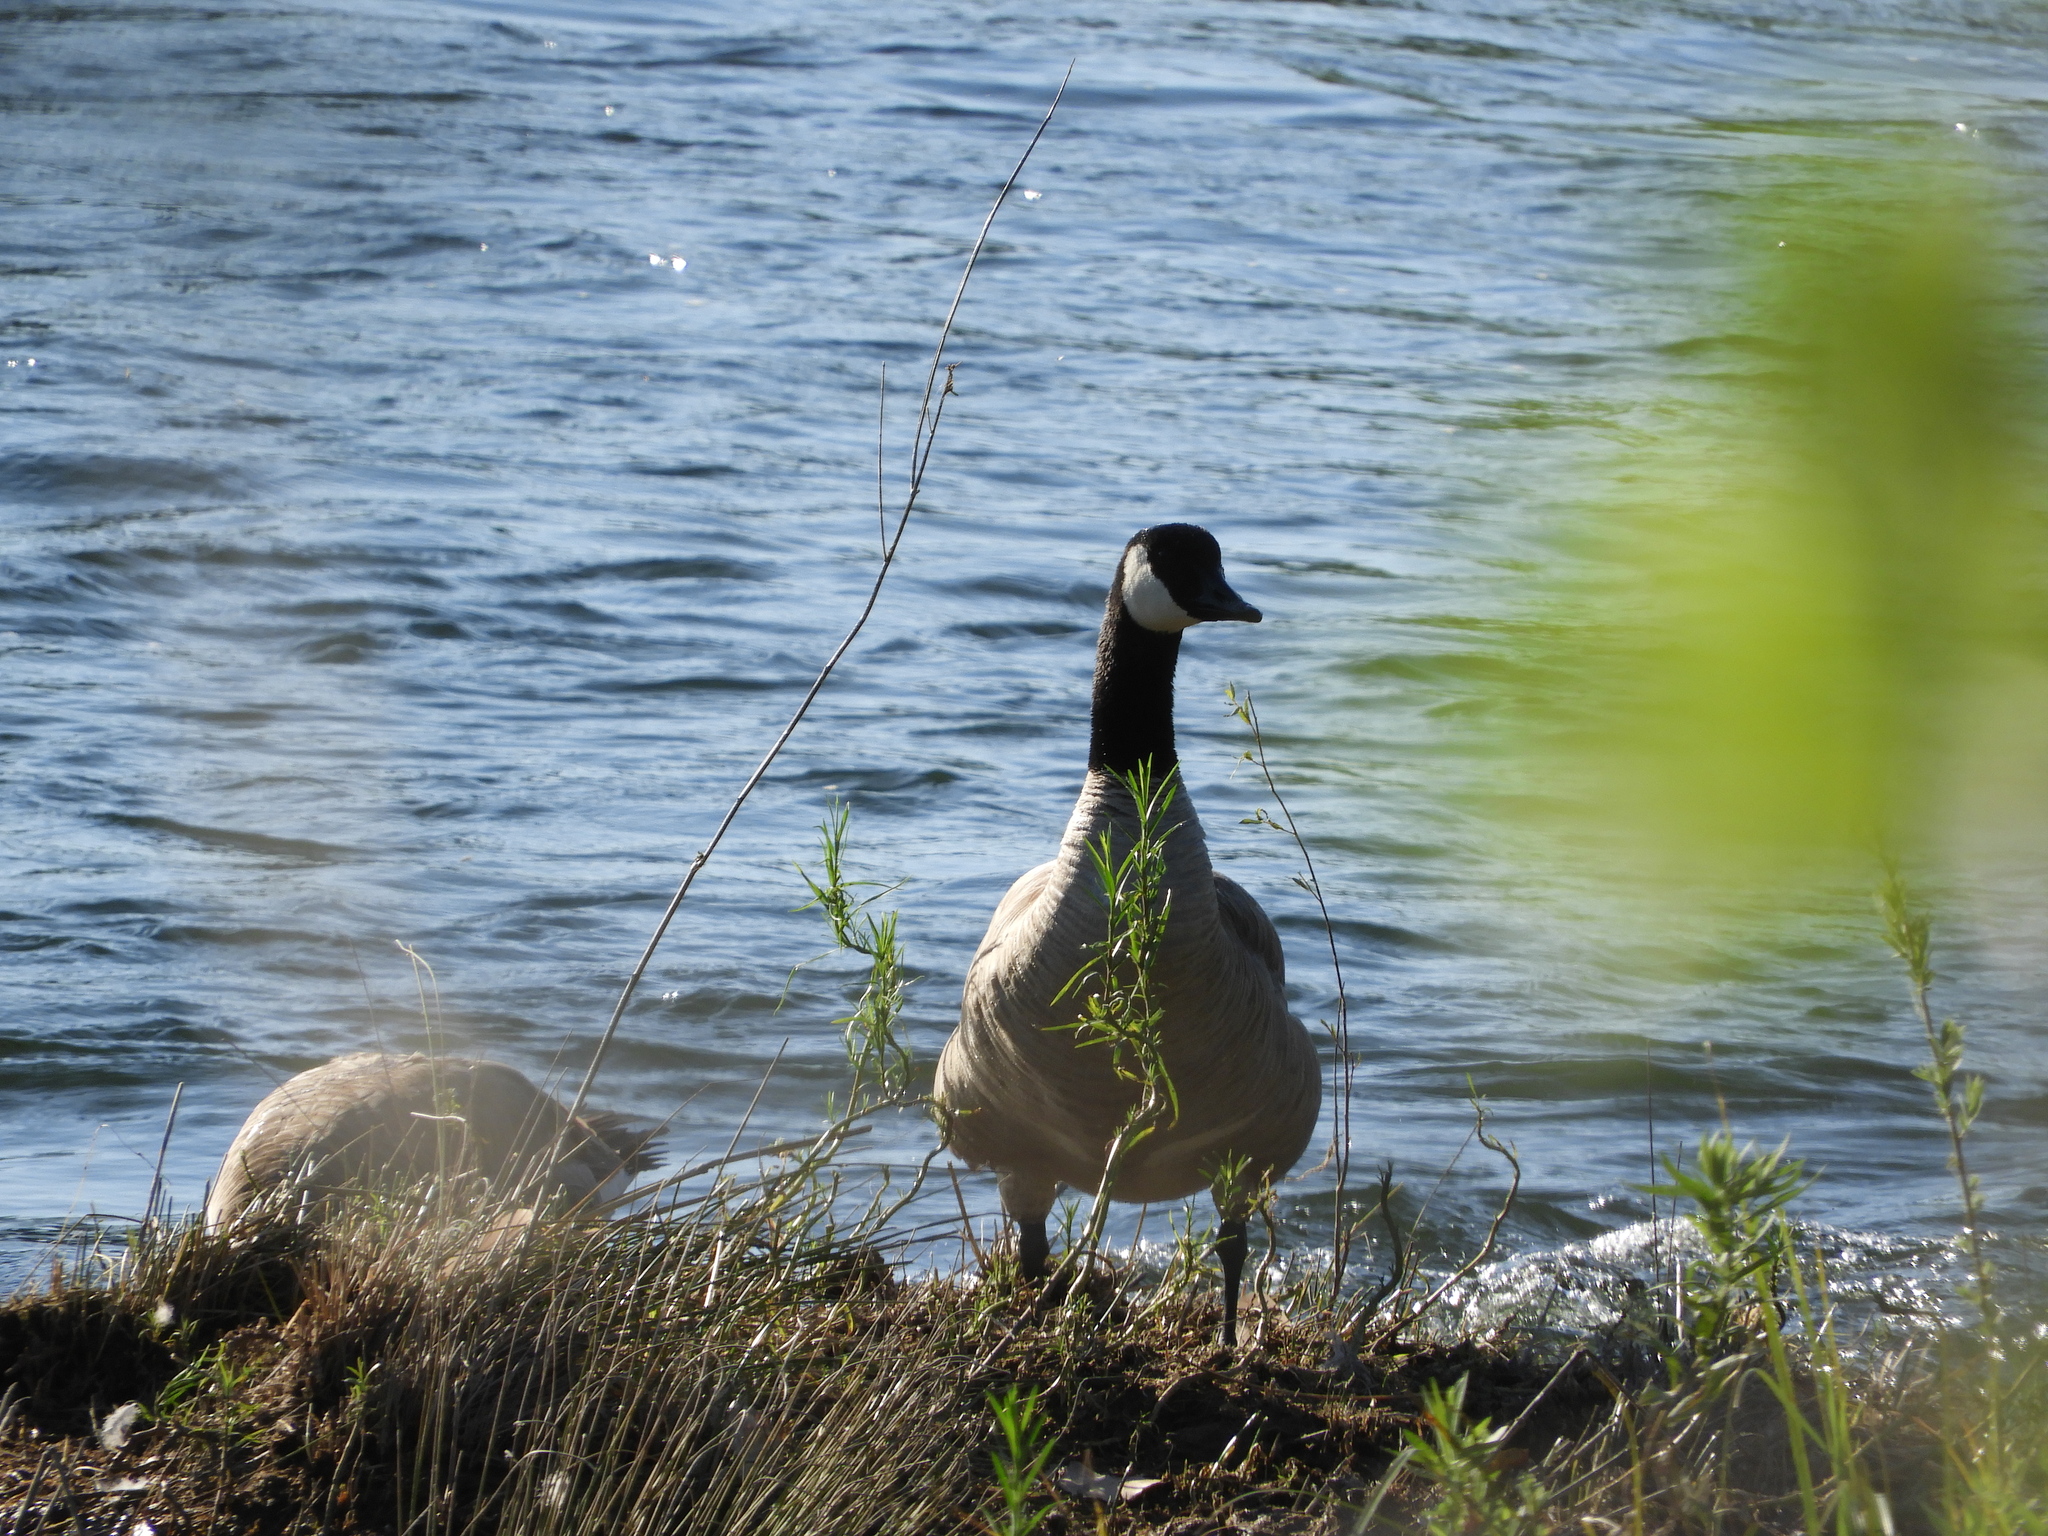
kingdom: Animalia
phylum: Chordata
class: Aves
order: Anseriformes
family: Anatidae
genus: Branta
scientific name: Branta canadensis
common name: Canada goose
